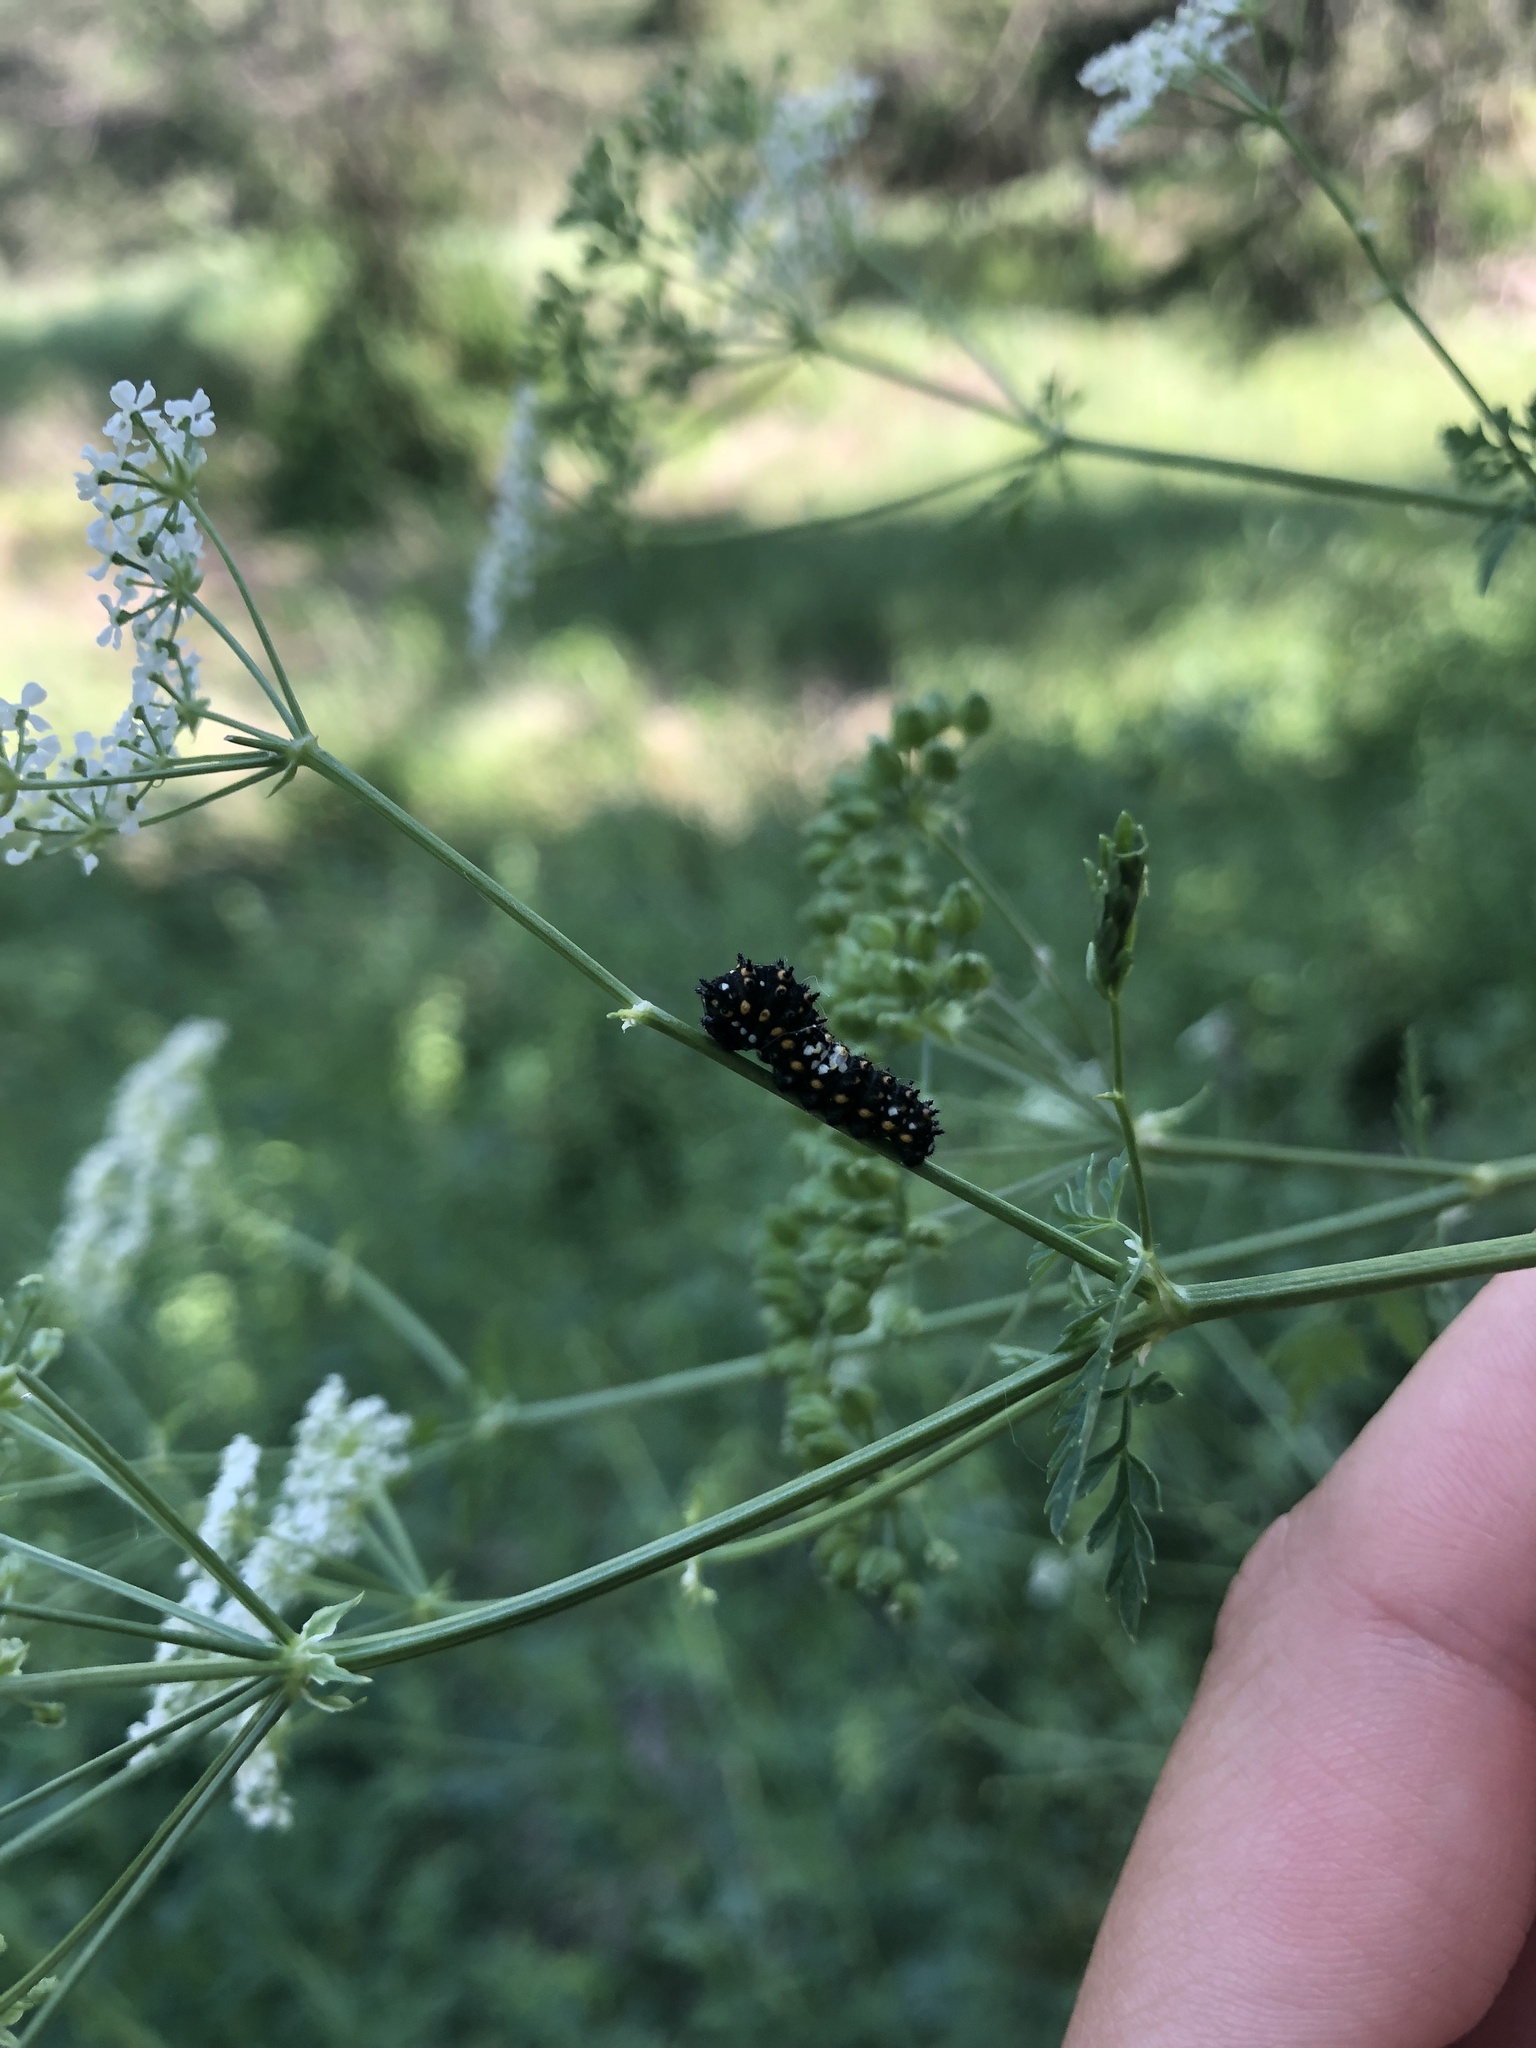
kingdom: Animalia
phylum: Arthropoda
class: Insecta
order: Lepidoptera
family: Papilionidae
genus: Papilio
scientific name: Papilio polyxenes
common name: Black swallowtail
